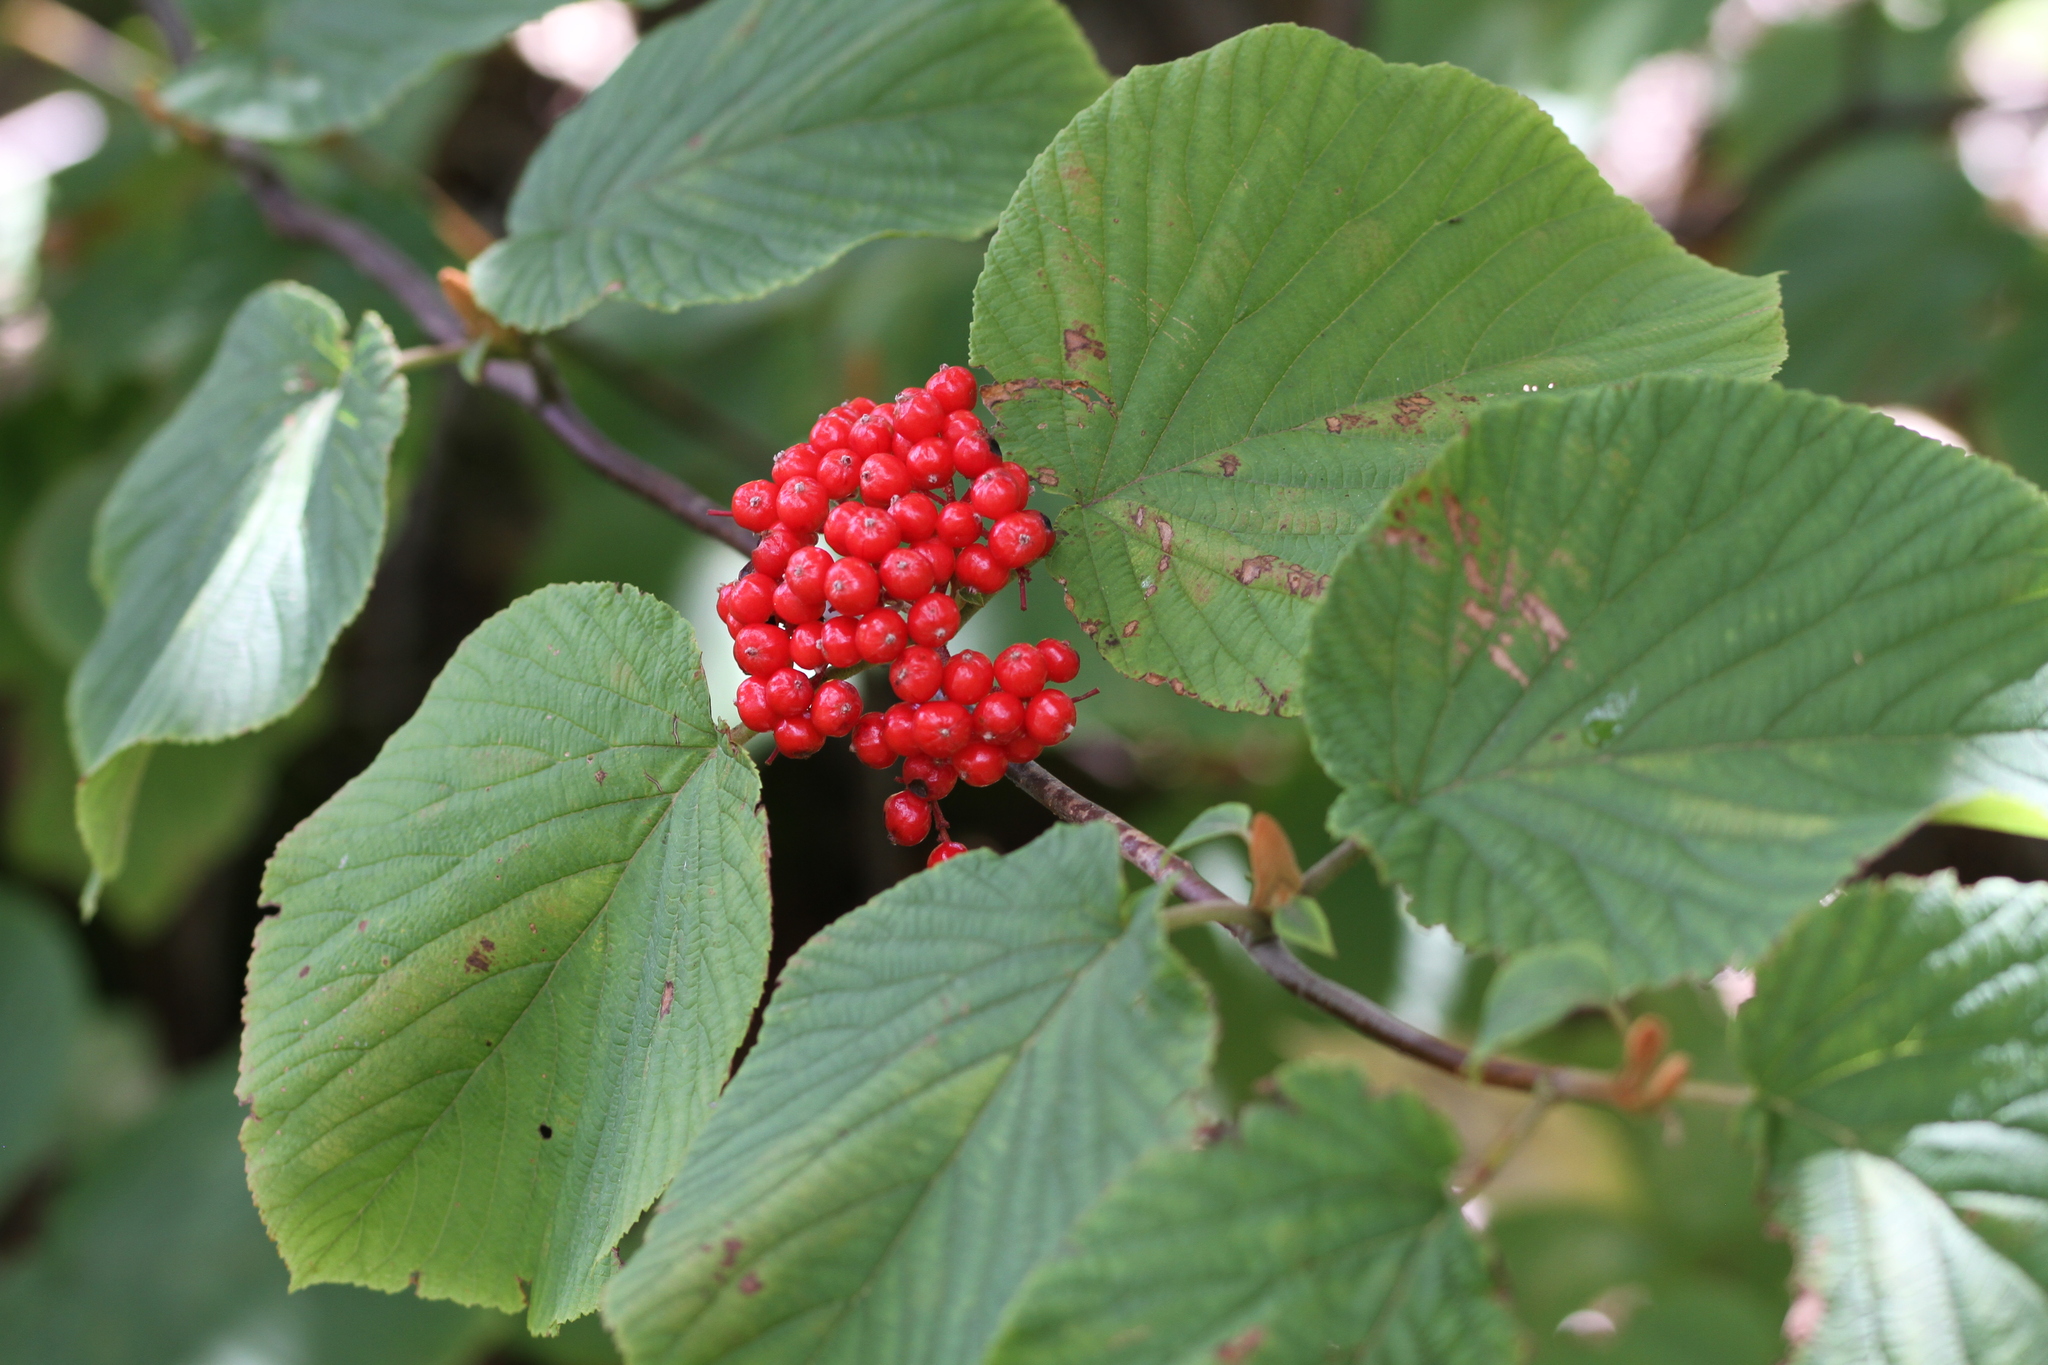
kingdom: Plantae
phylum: Tracheophyta
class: Magnoliopsida
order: Dipsacales
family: Viburnaceae
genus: Viburnum
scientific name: Viburnum lantanoides
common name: Hobblebush
